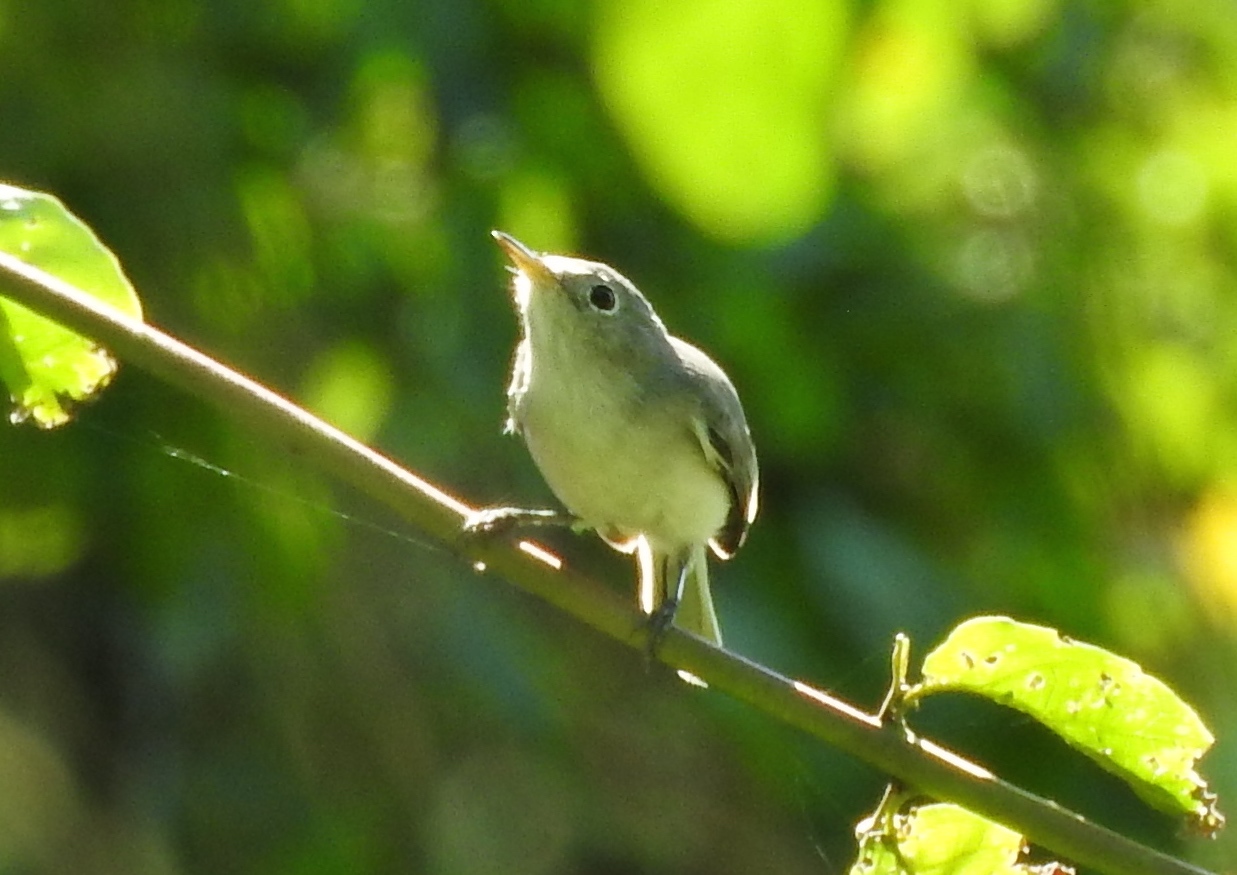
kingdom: Animalia
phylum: Chordata
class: Aves
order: Passeriformes
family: Polioptilidae
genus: Polioptila
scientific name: Polioptila caerulea
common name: Blue-gray gnatcatcher
